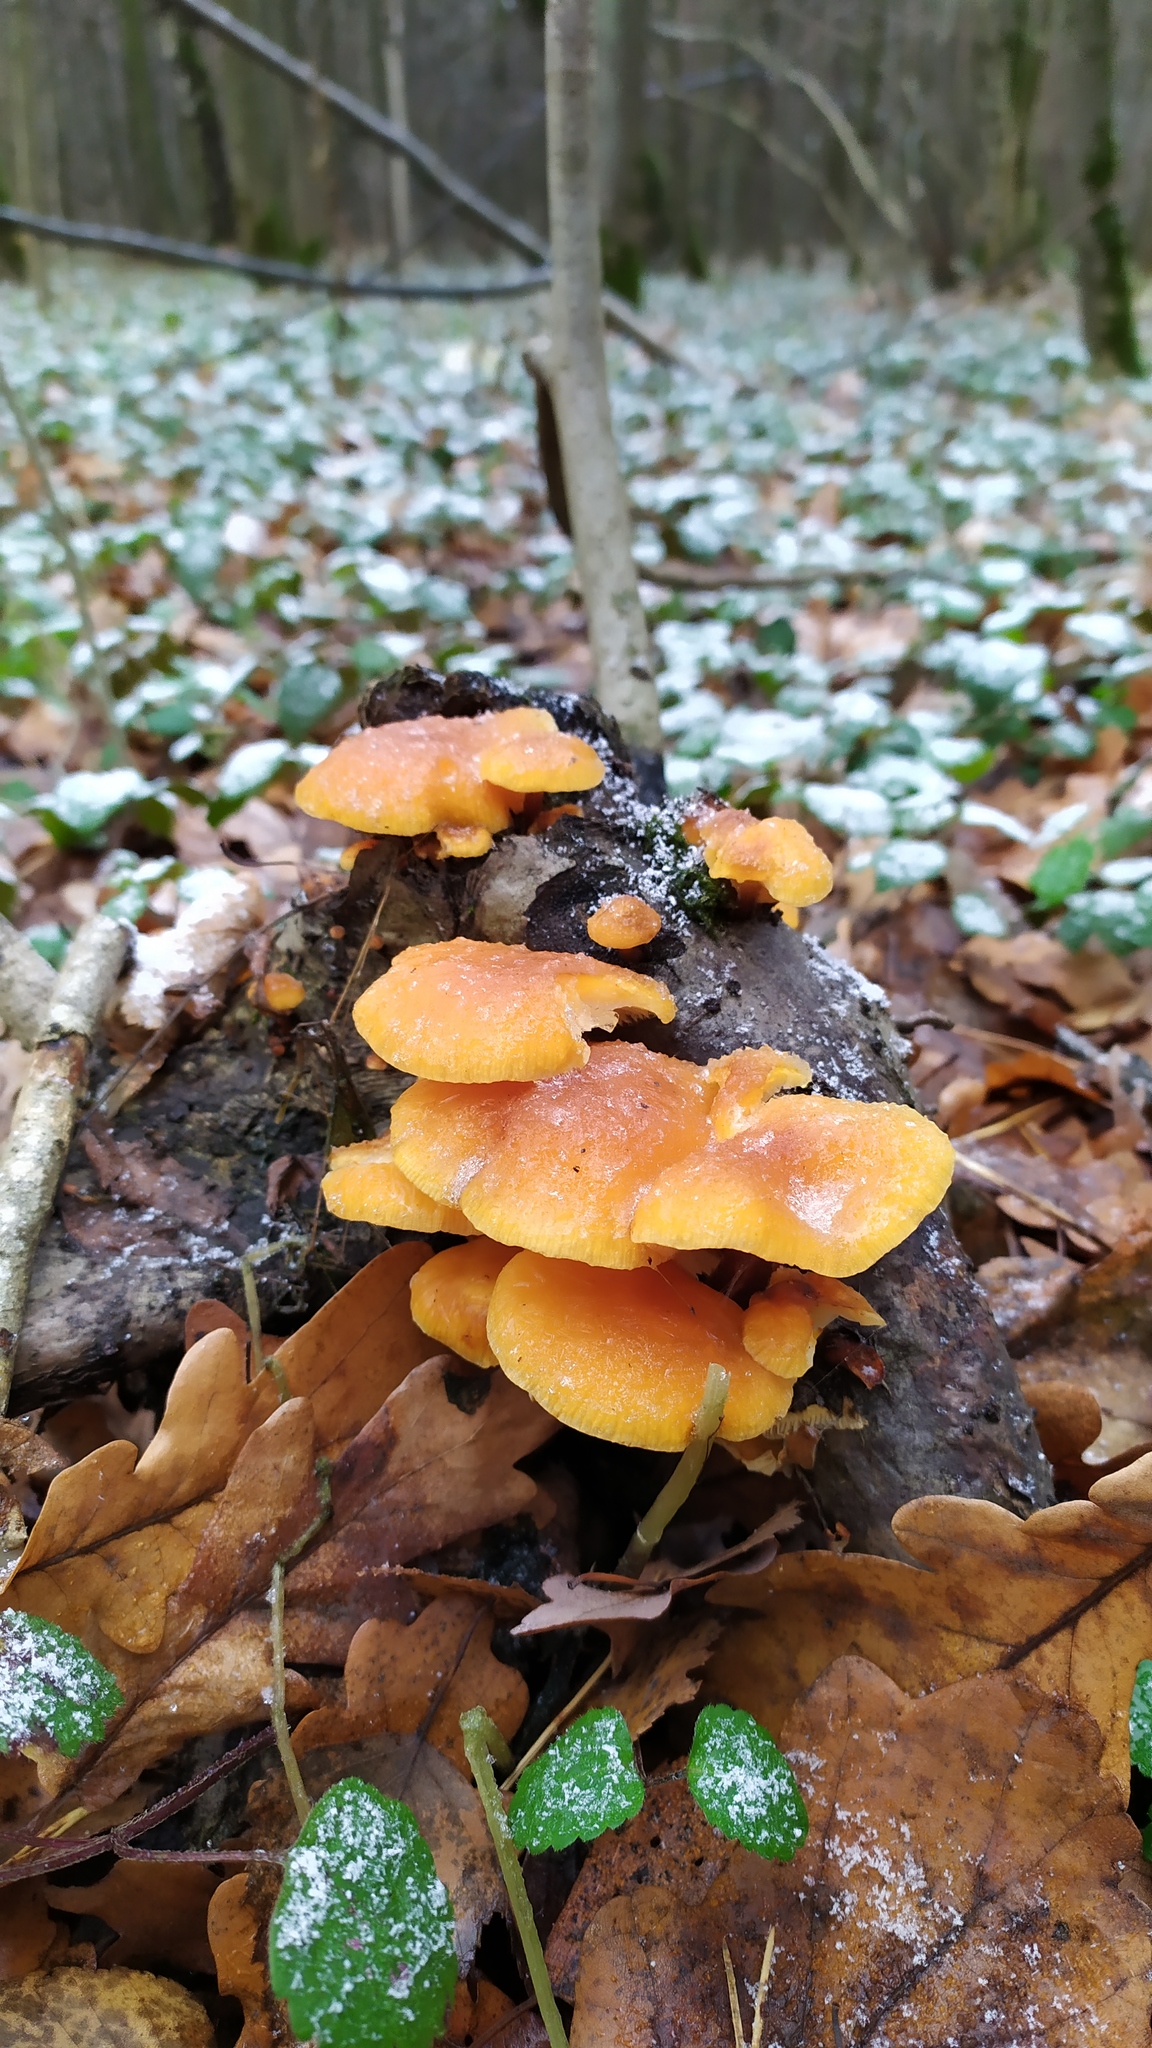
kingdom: Fungi
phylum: Basidiomycota
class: Agaricomycetes
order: Agaricales
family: Physalacriaceae
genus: Flammulina
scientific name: Flammulina
